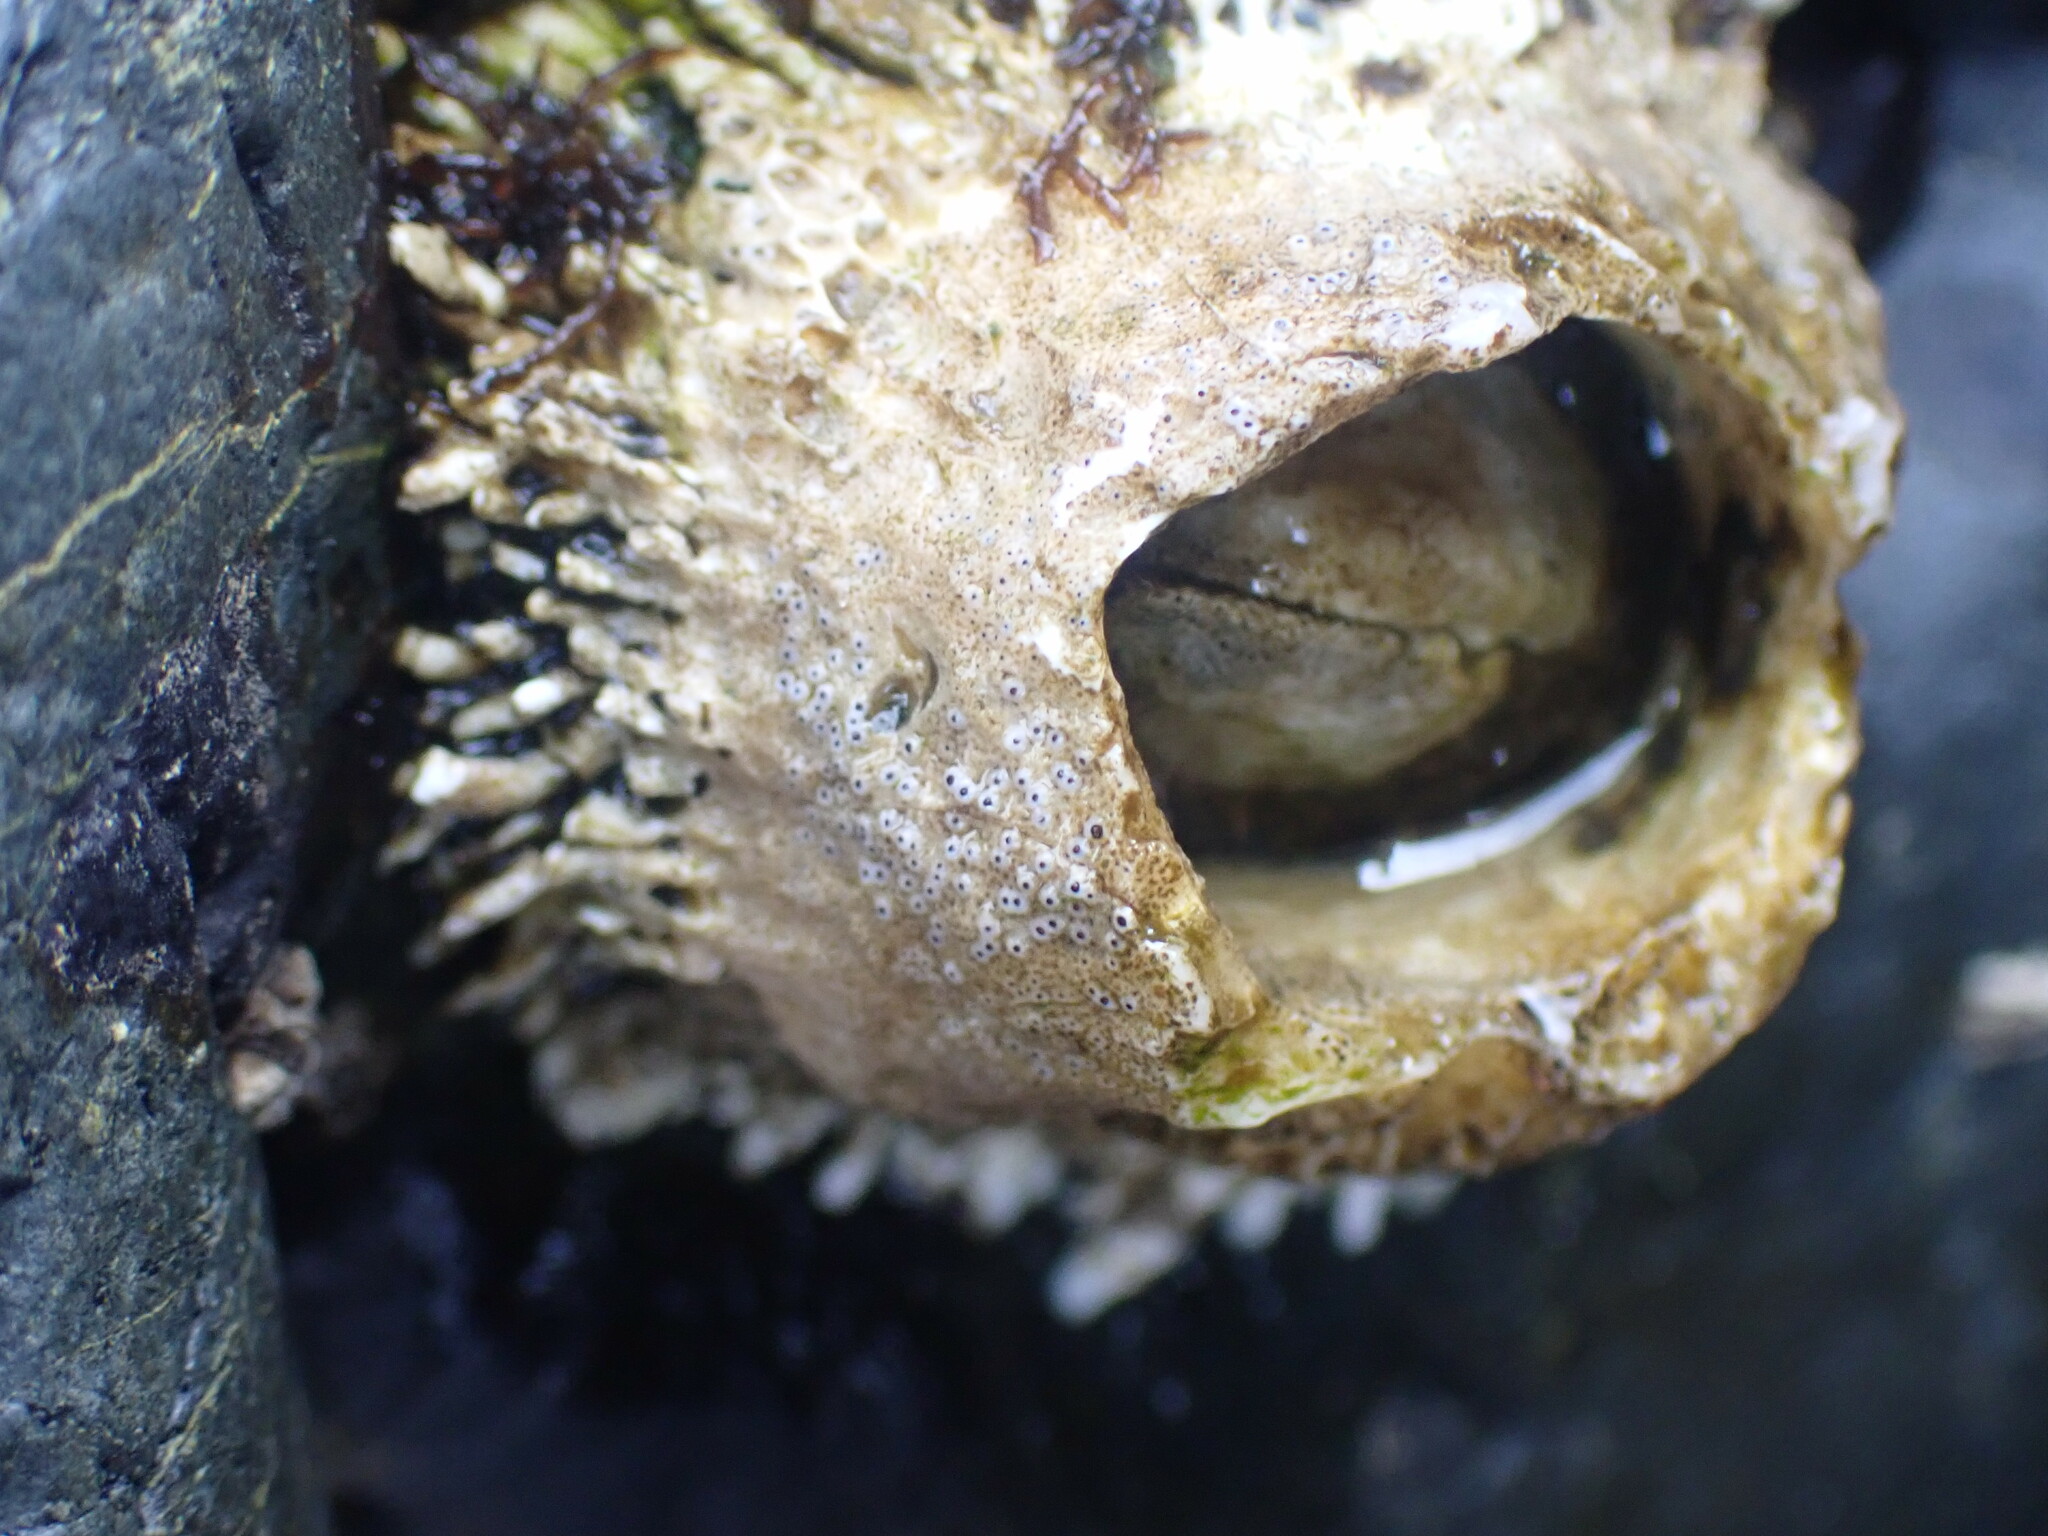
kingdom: Animalia
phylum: Arthropoda
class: Maxillopoda
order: Sessilia
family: Archaeobalanidae
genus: Semibalanus
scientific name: Semibalanus cariosus
